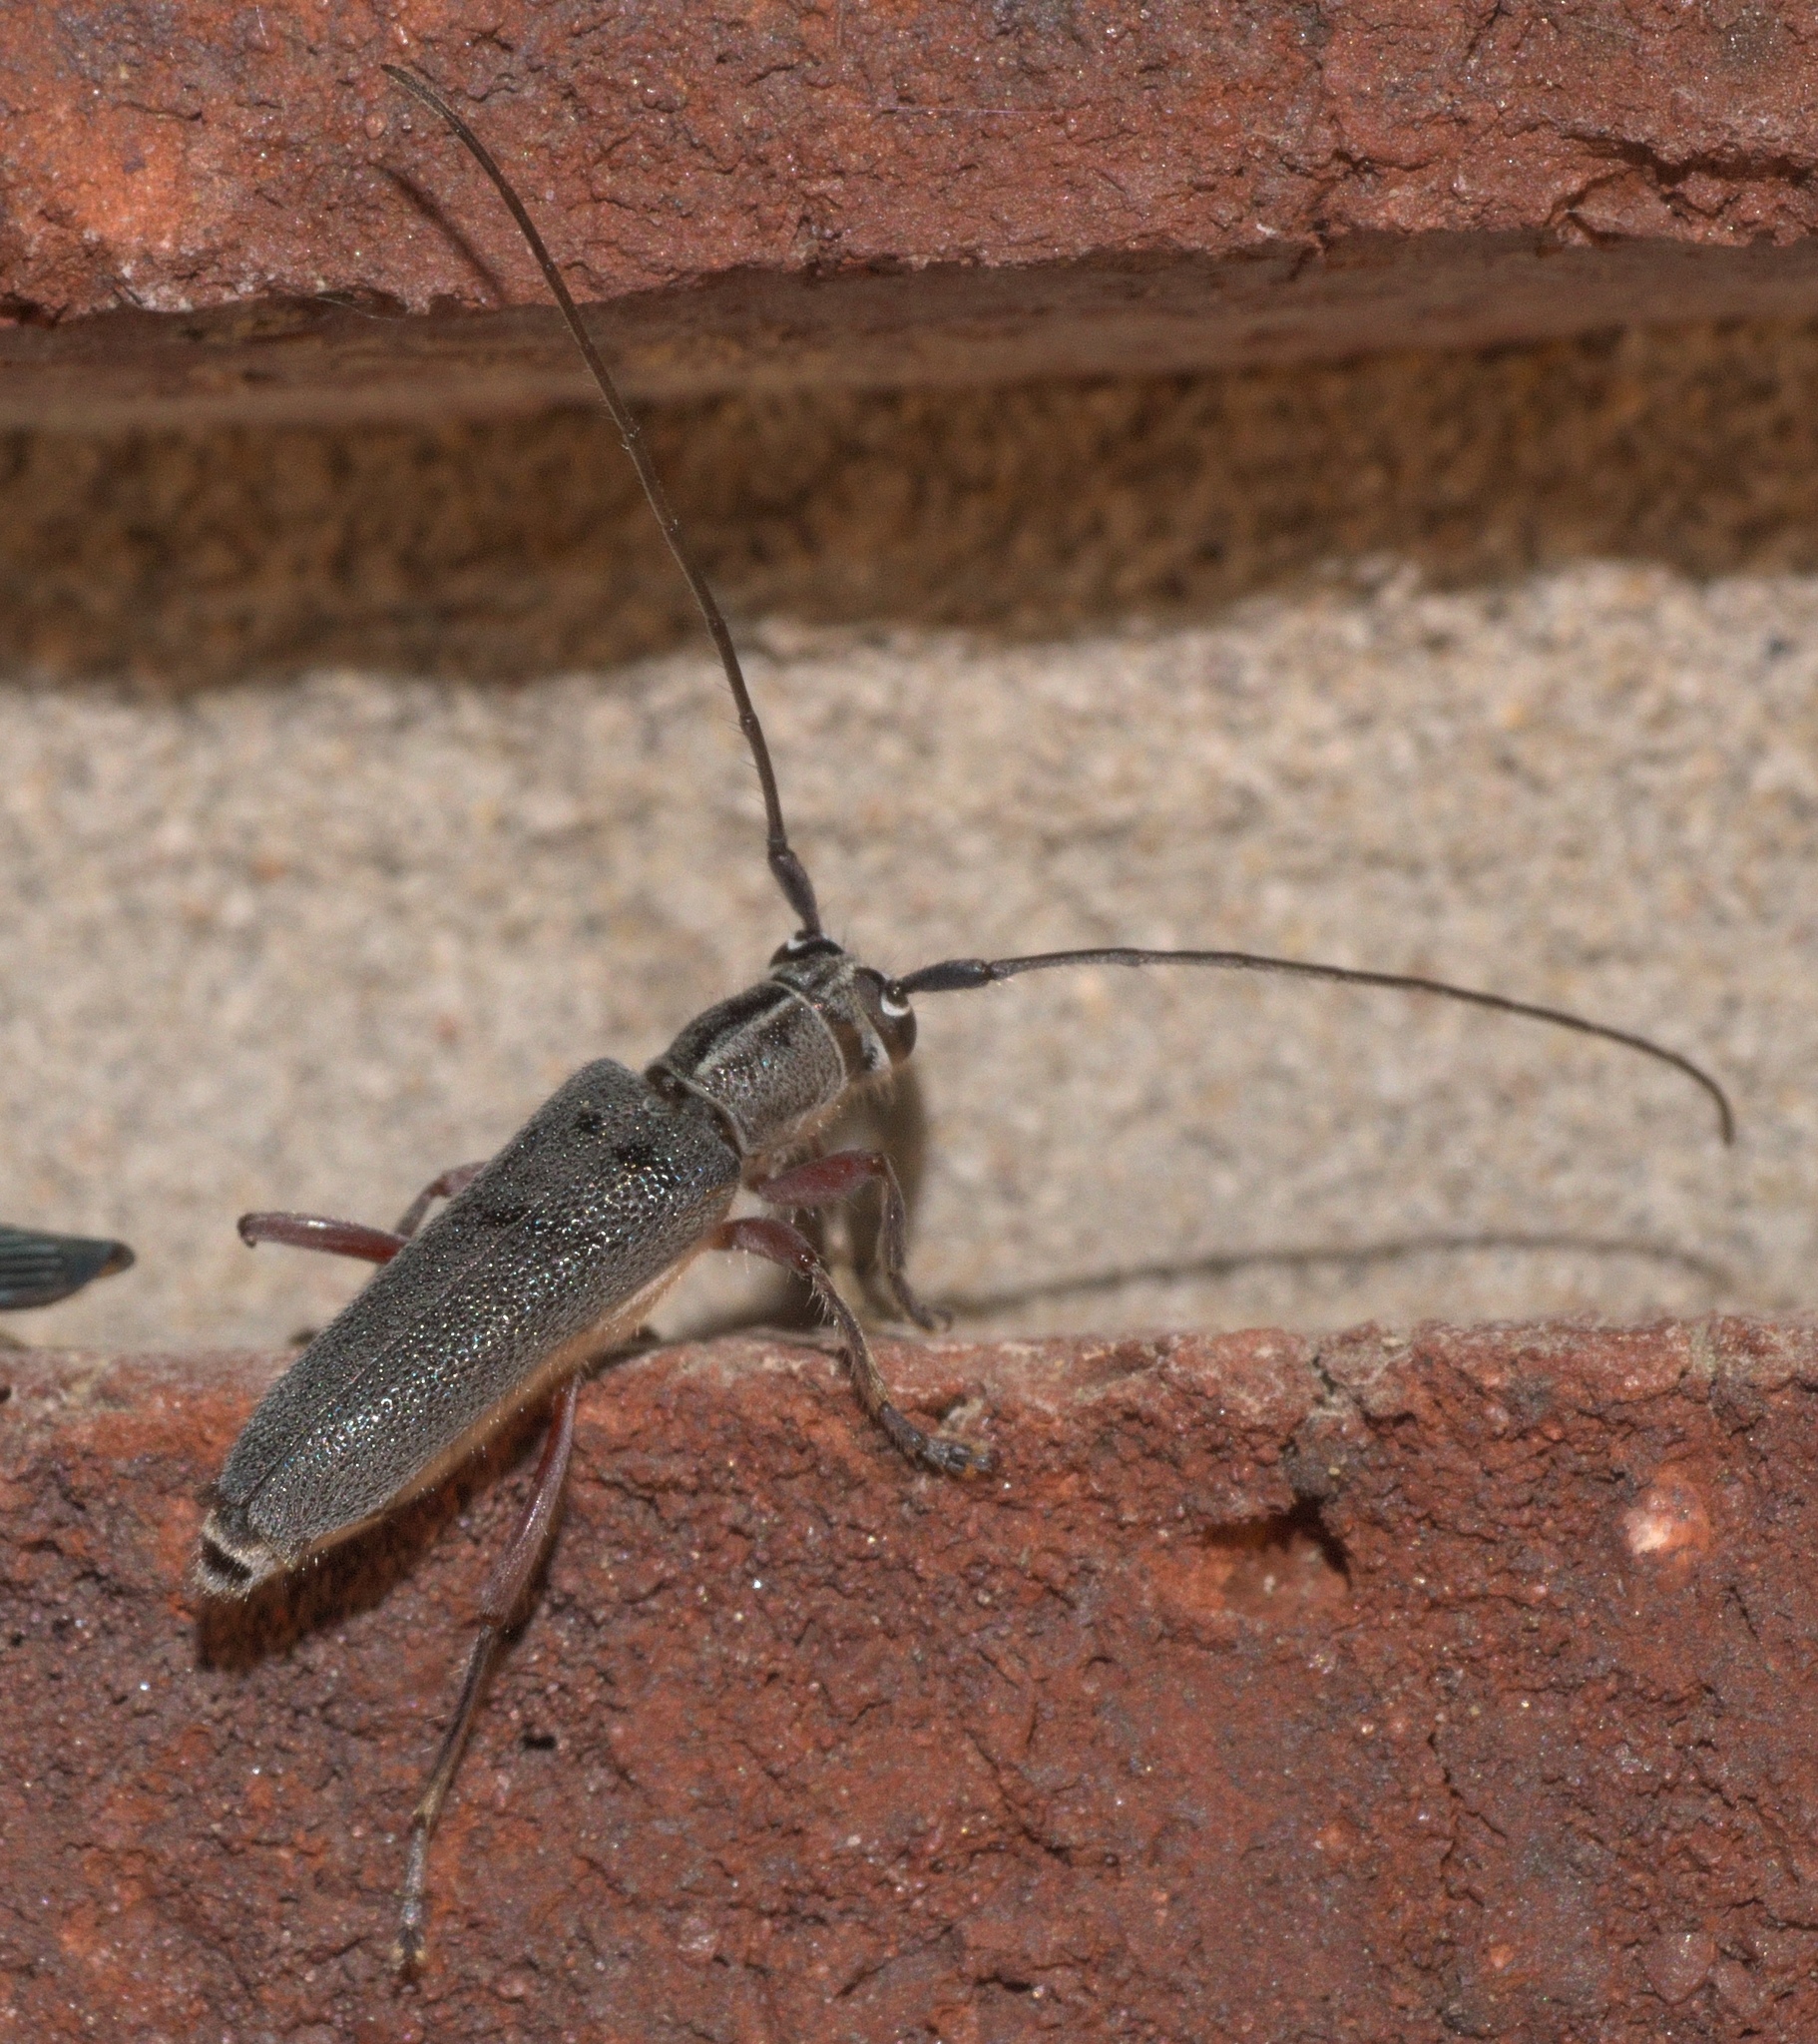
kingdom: Animalia
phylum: Arthropoda
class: Insecta
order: Coleoptera
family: Cerambycidae
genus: Saperda
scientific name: Saperda discoidea
